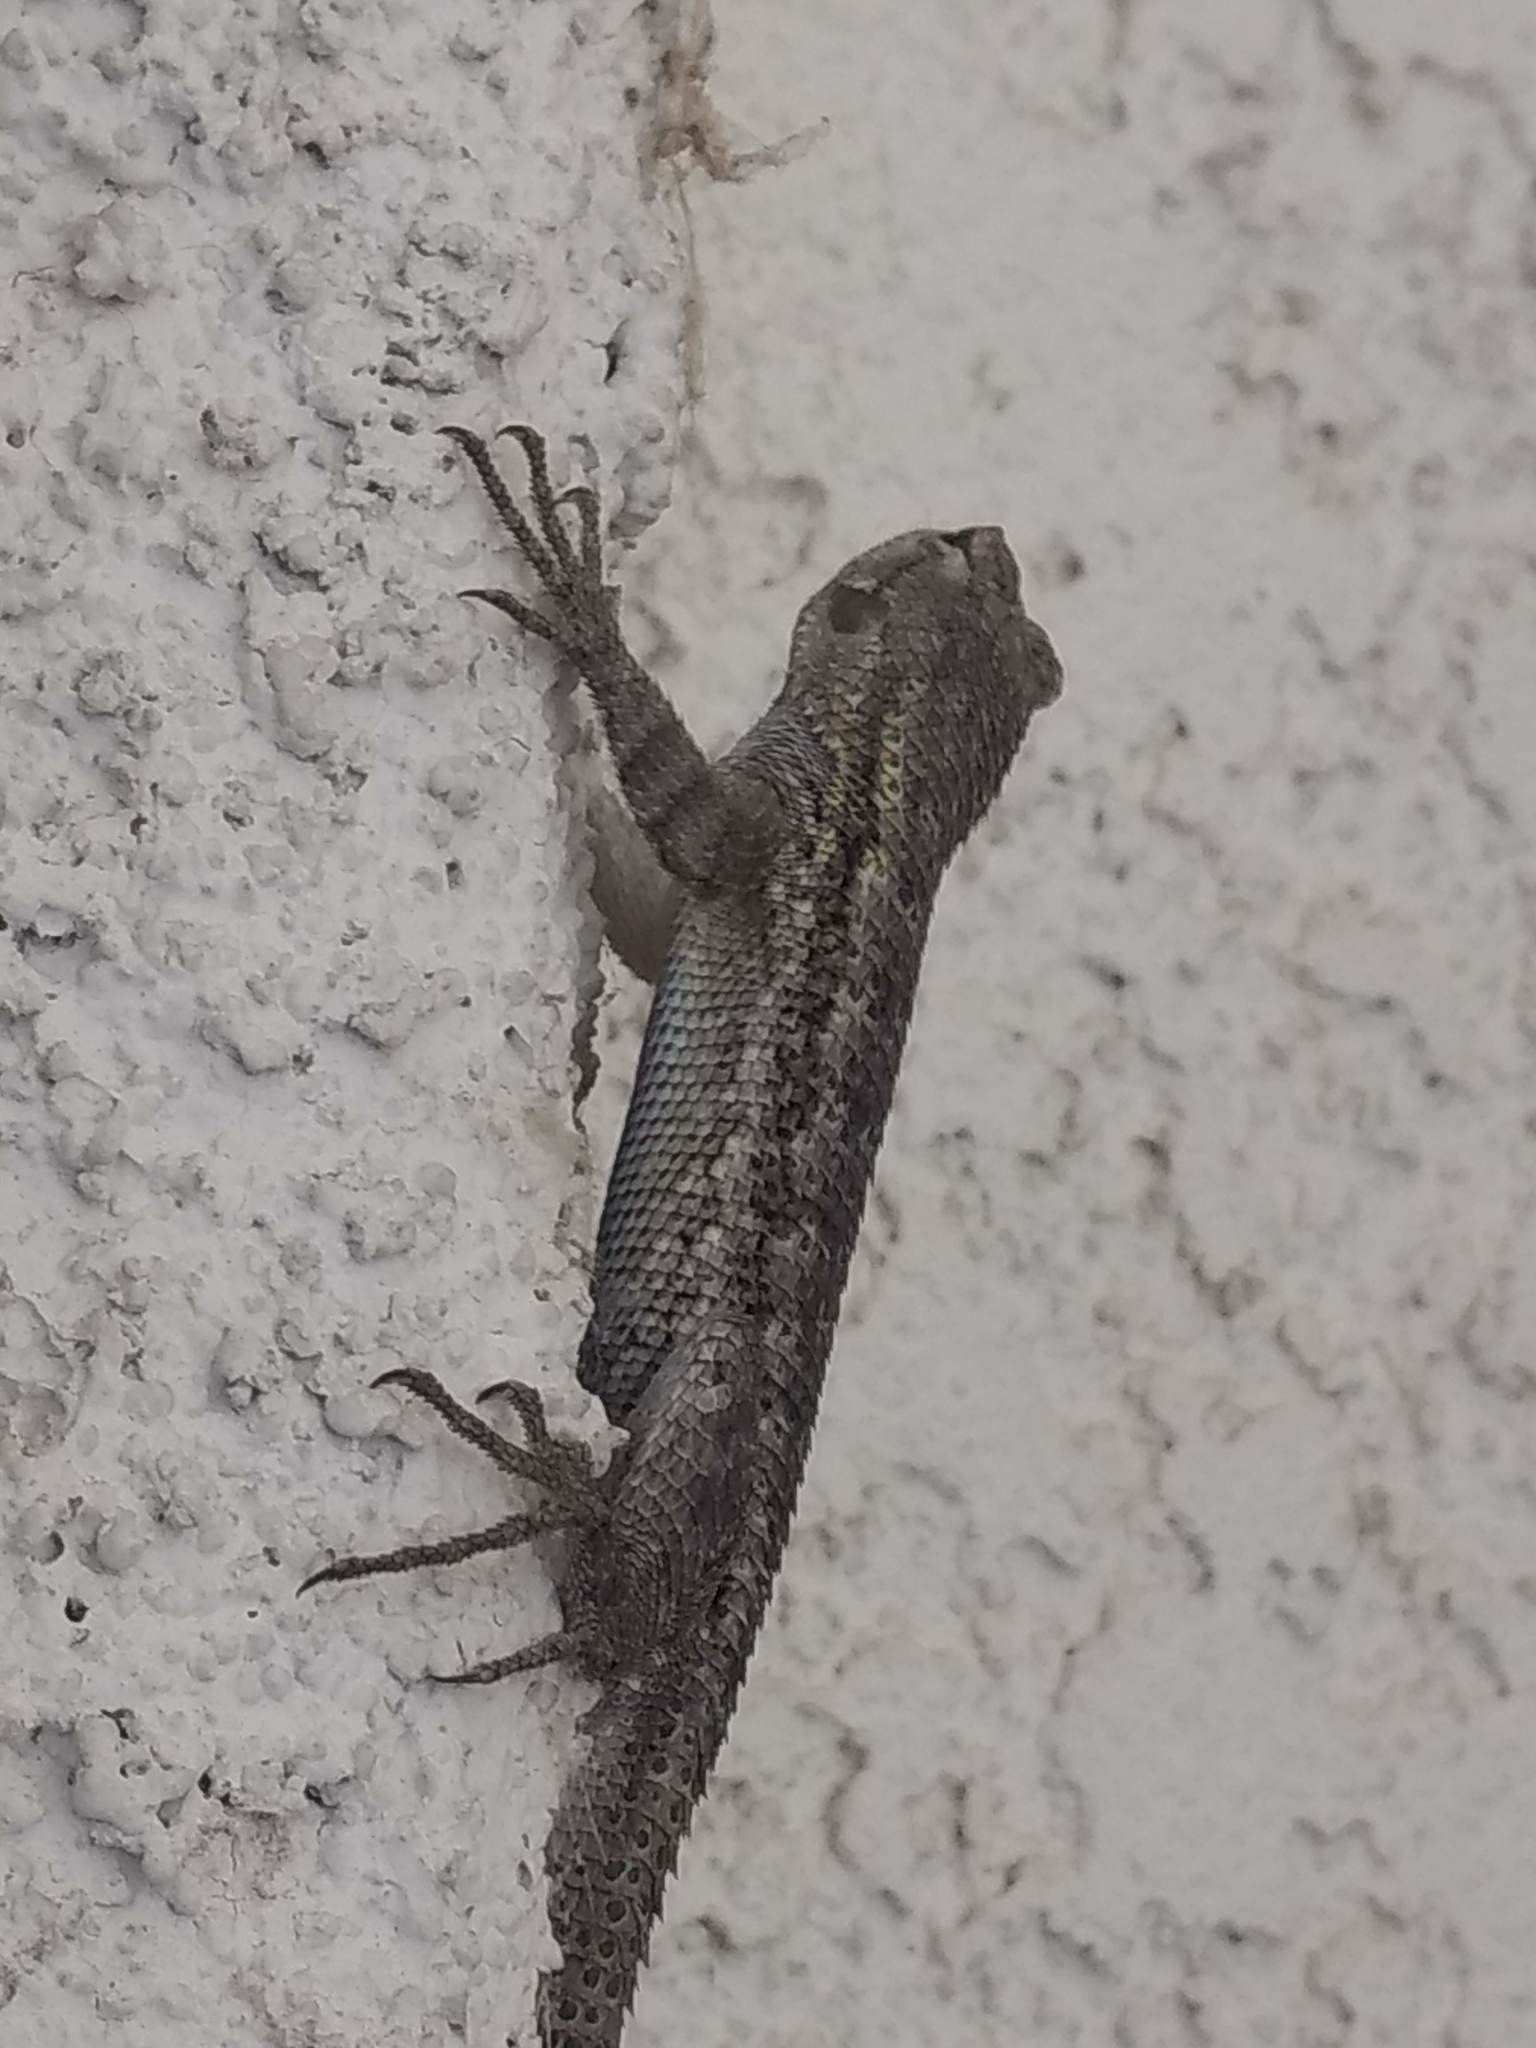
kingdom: Animalia
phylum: Chordata
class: Squamata
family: Phrynosomatidae
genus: Sceloporus
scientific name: Sceloporus occidentalis
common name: Western fence lizard
